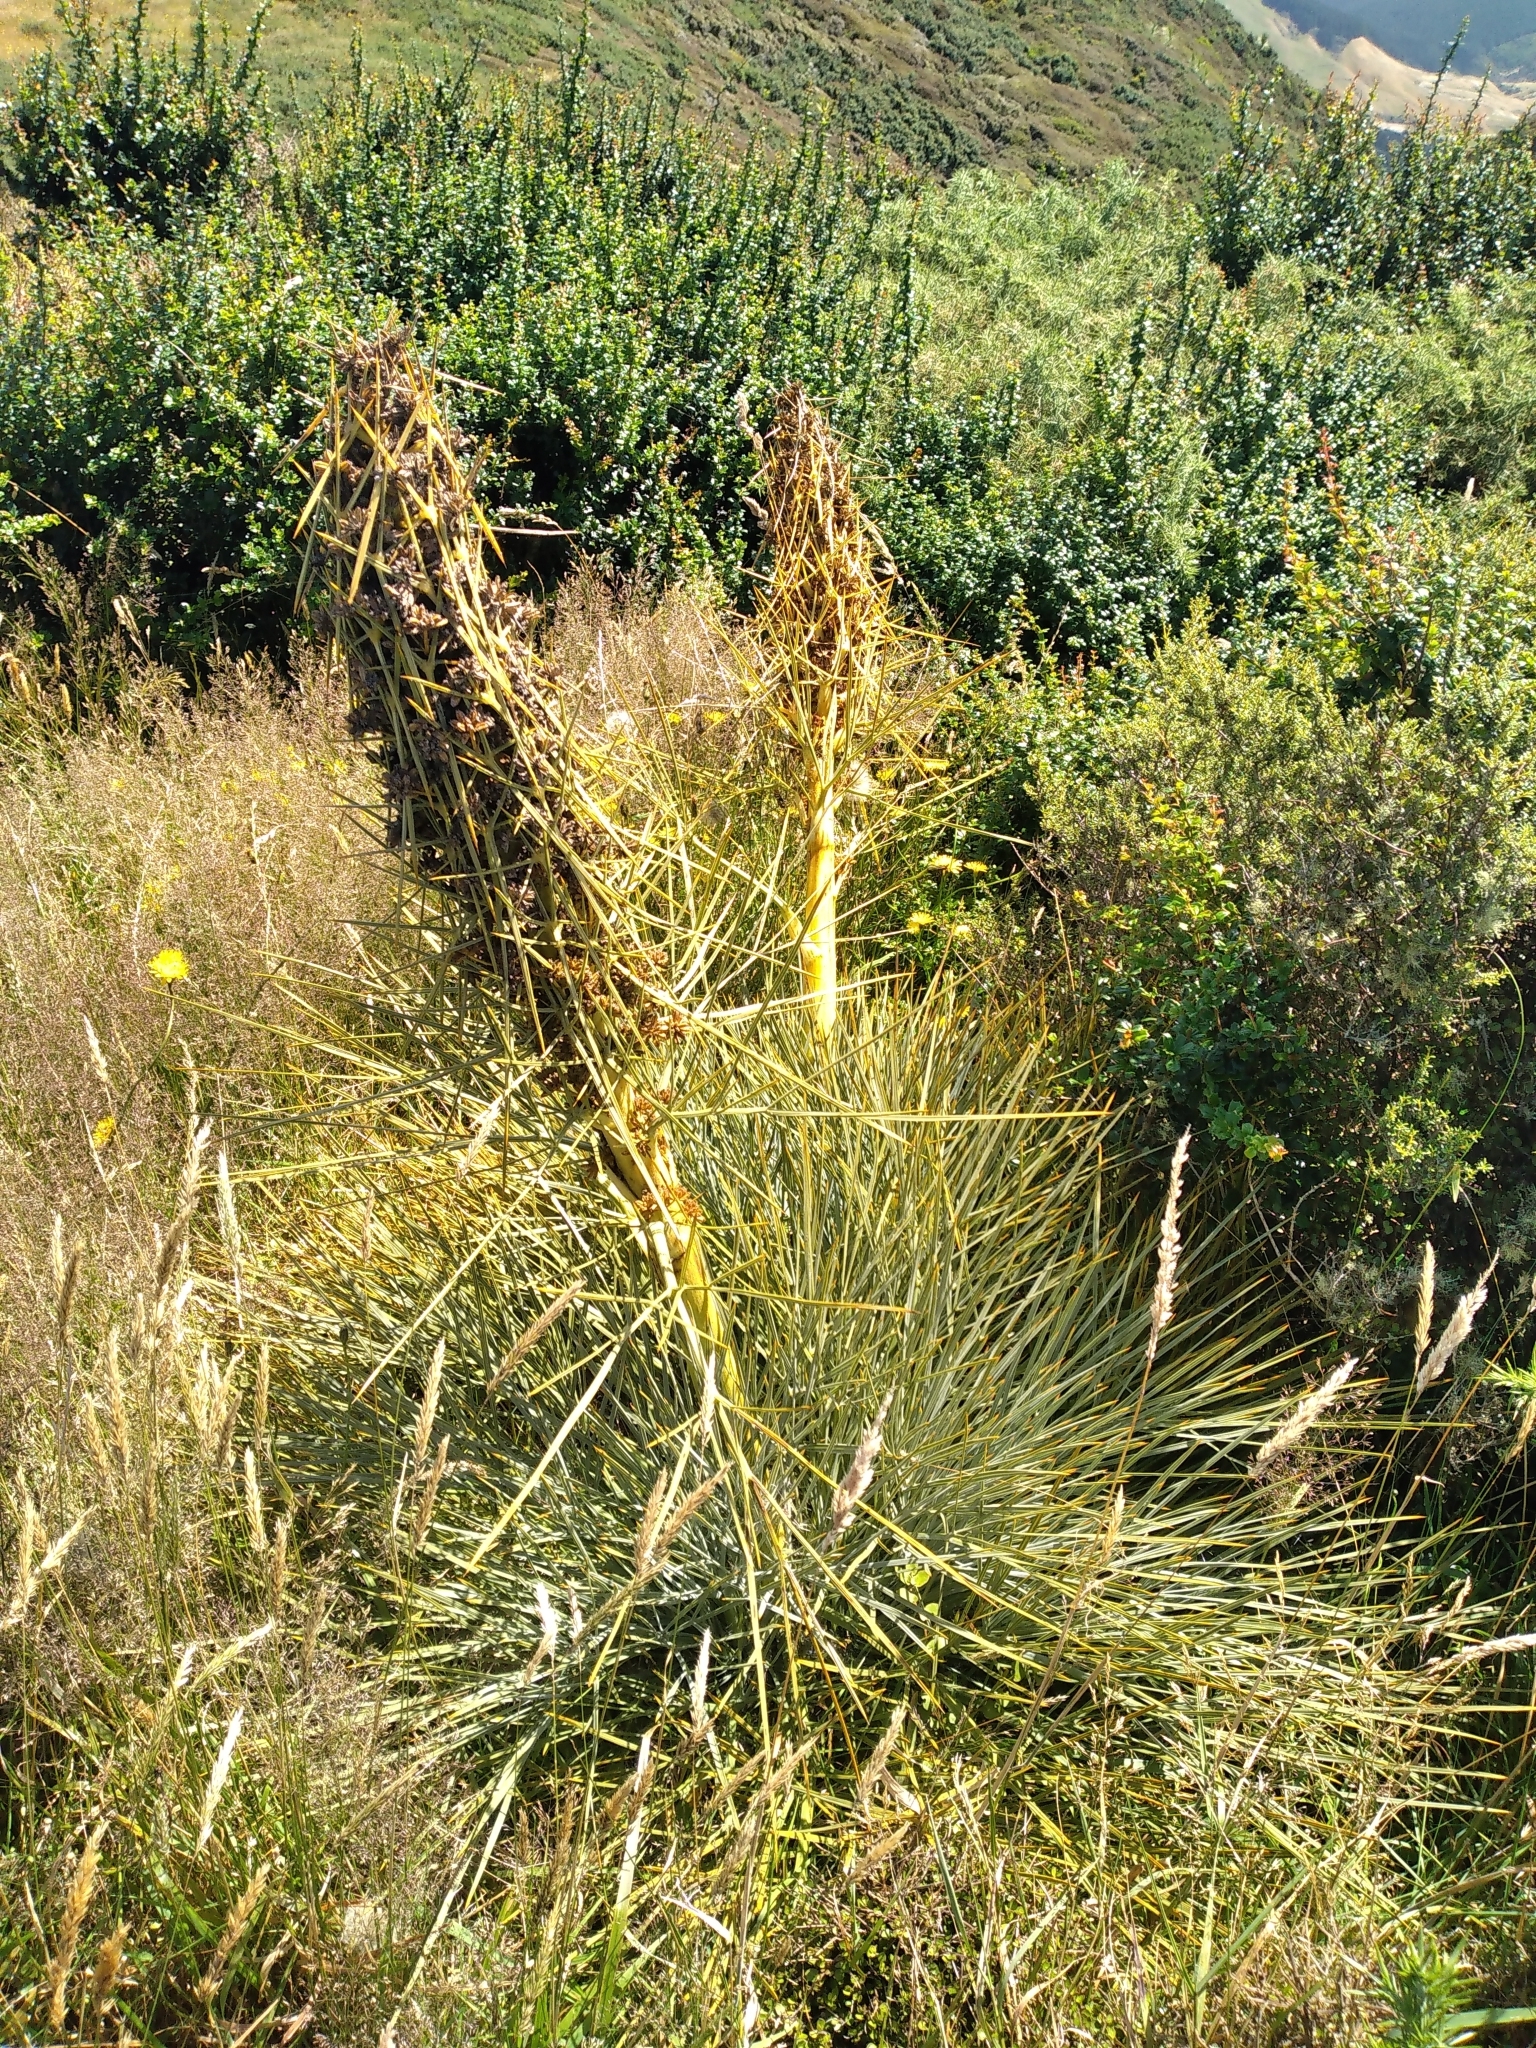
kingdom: Plantae
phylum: Tracheophyta
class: Magnoliopsida
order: Apiales
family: Apiaceae
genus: Aciphylla
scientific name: Aciphylla squarrosa
